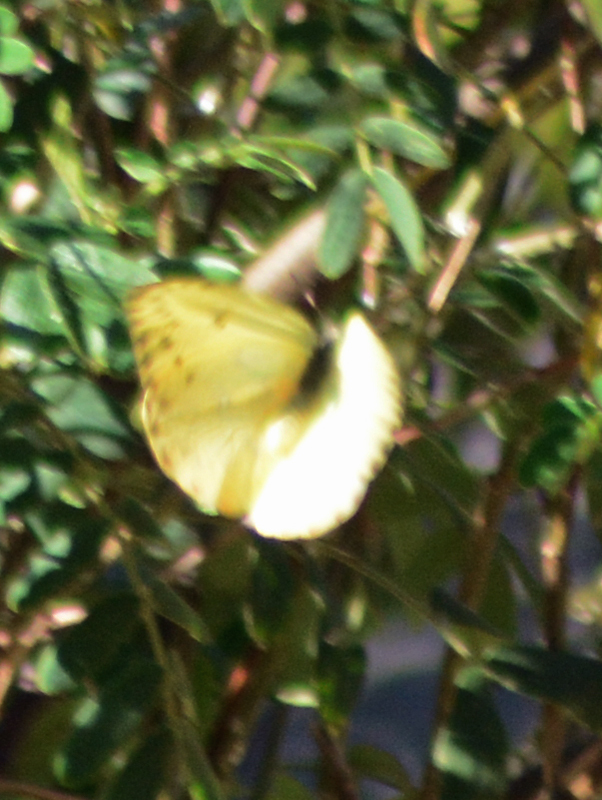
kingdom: Animalia
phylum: Arthropoda
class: Insecta
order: Lepidoptera
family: Pieridae
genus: Phoebis
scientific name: Phoebis philea
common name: Orange-barred giant sulphur
